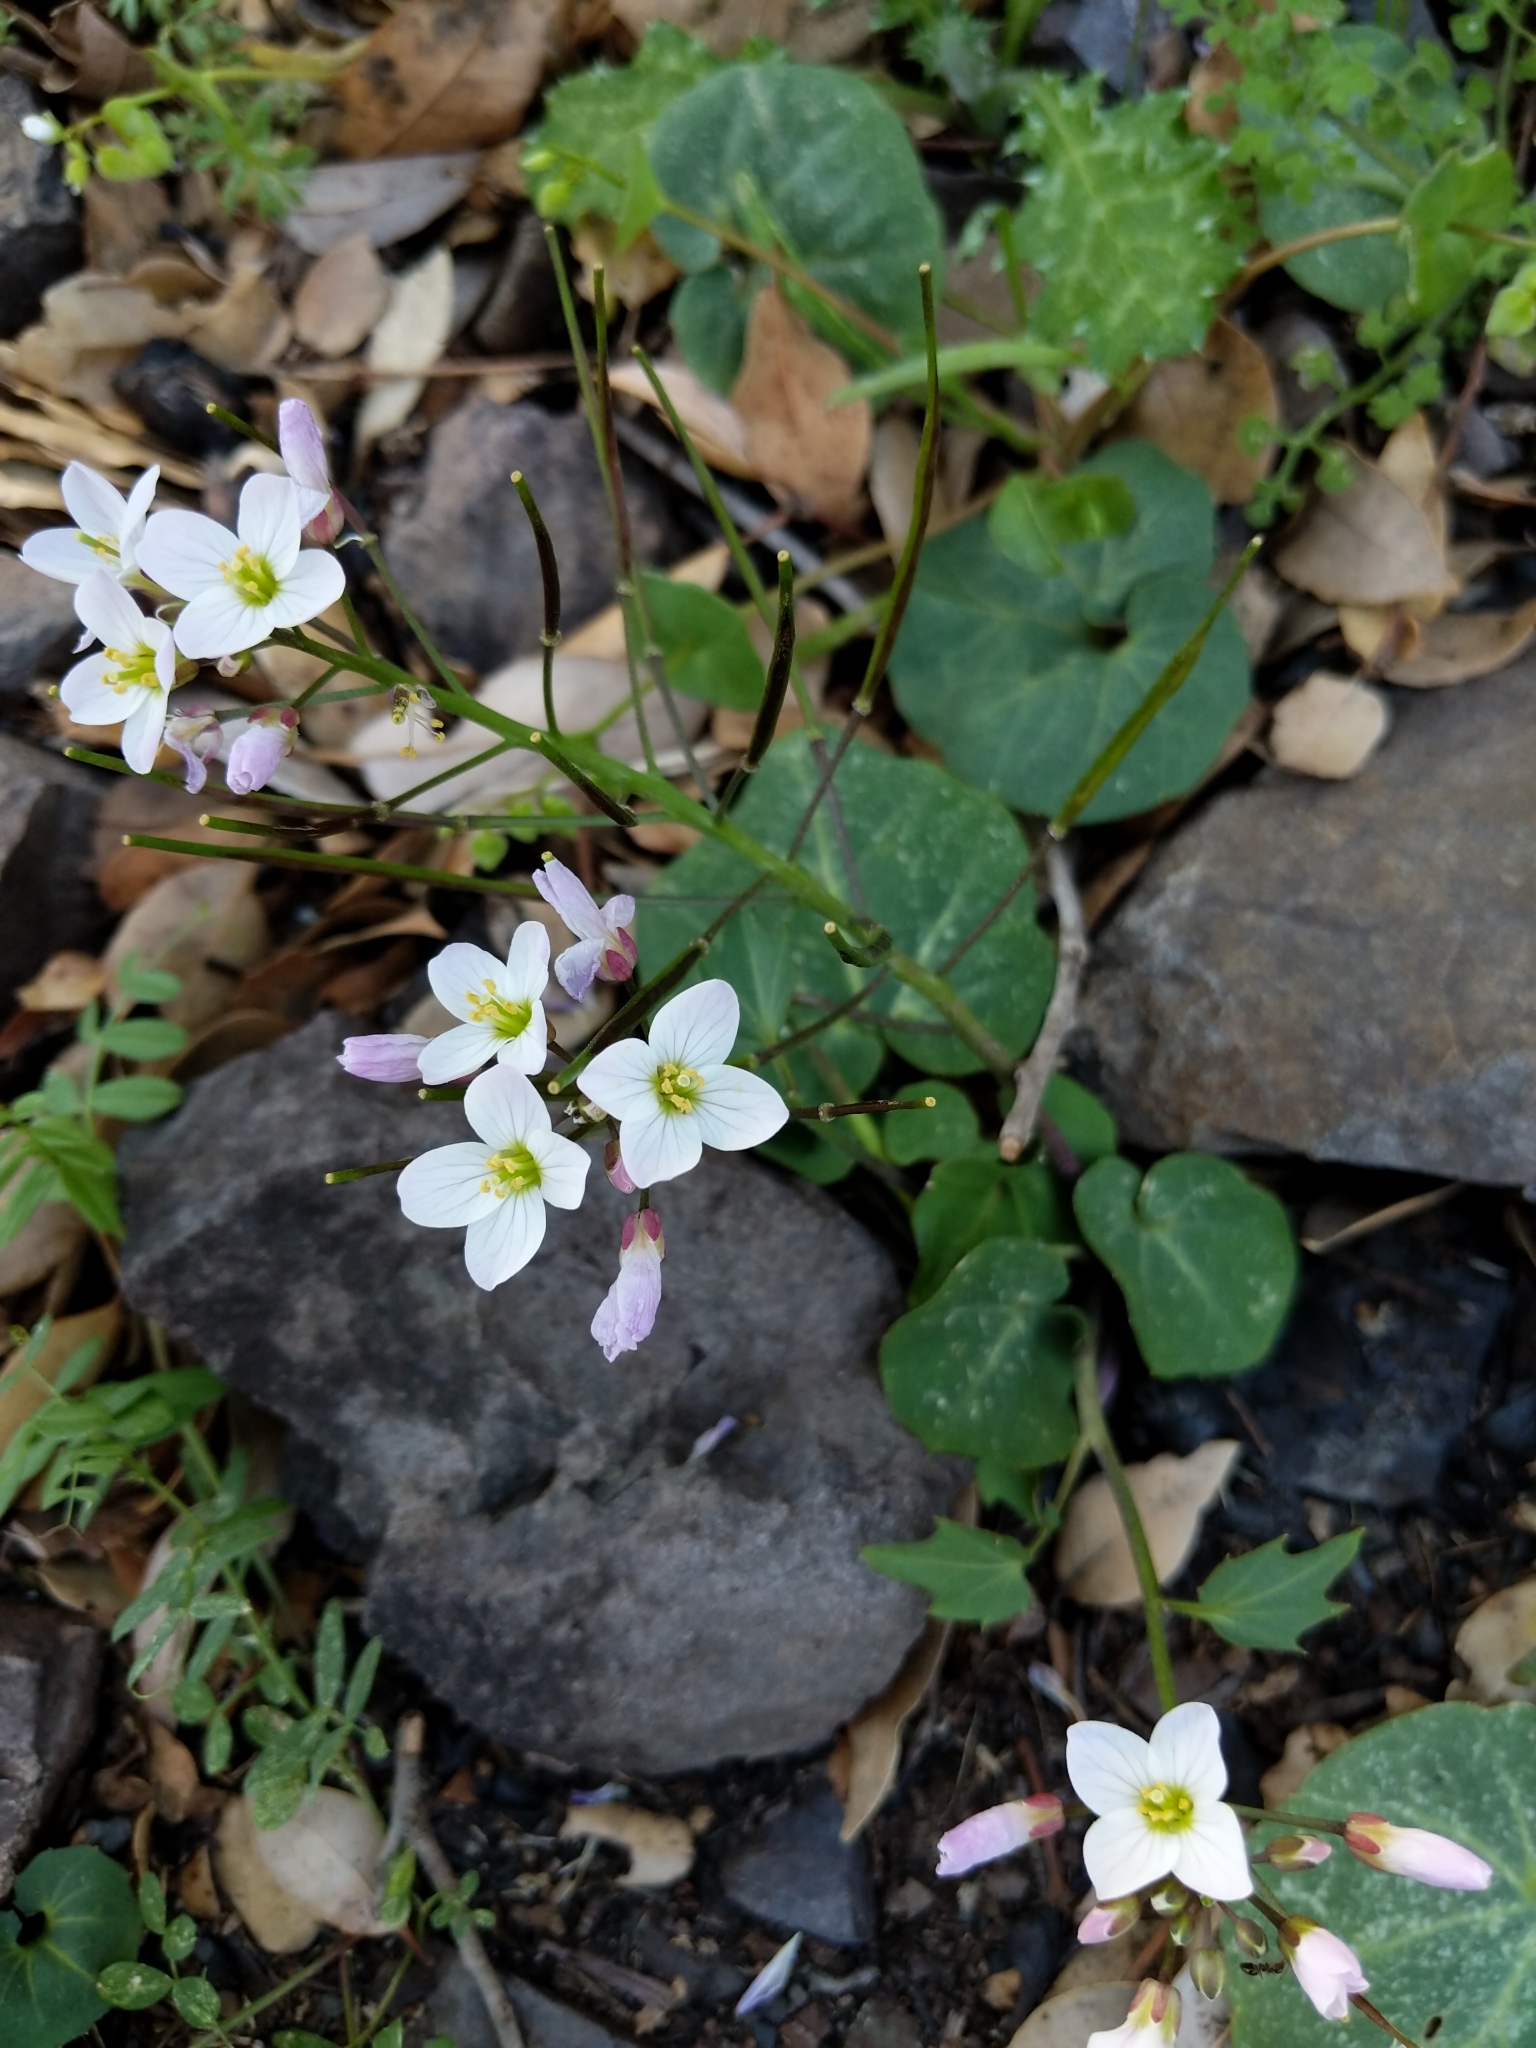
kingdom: Plantae
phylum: Tracheophyta
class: Magnoliopsida
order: Brassicales
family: Brassicaceae
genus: Cardamine
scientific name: Cardamine californica
